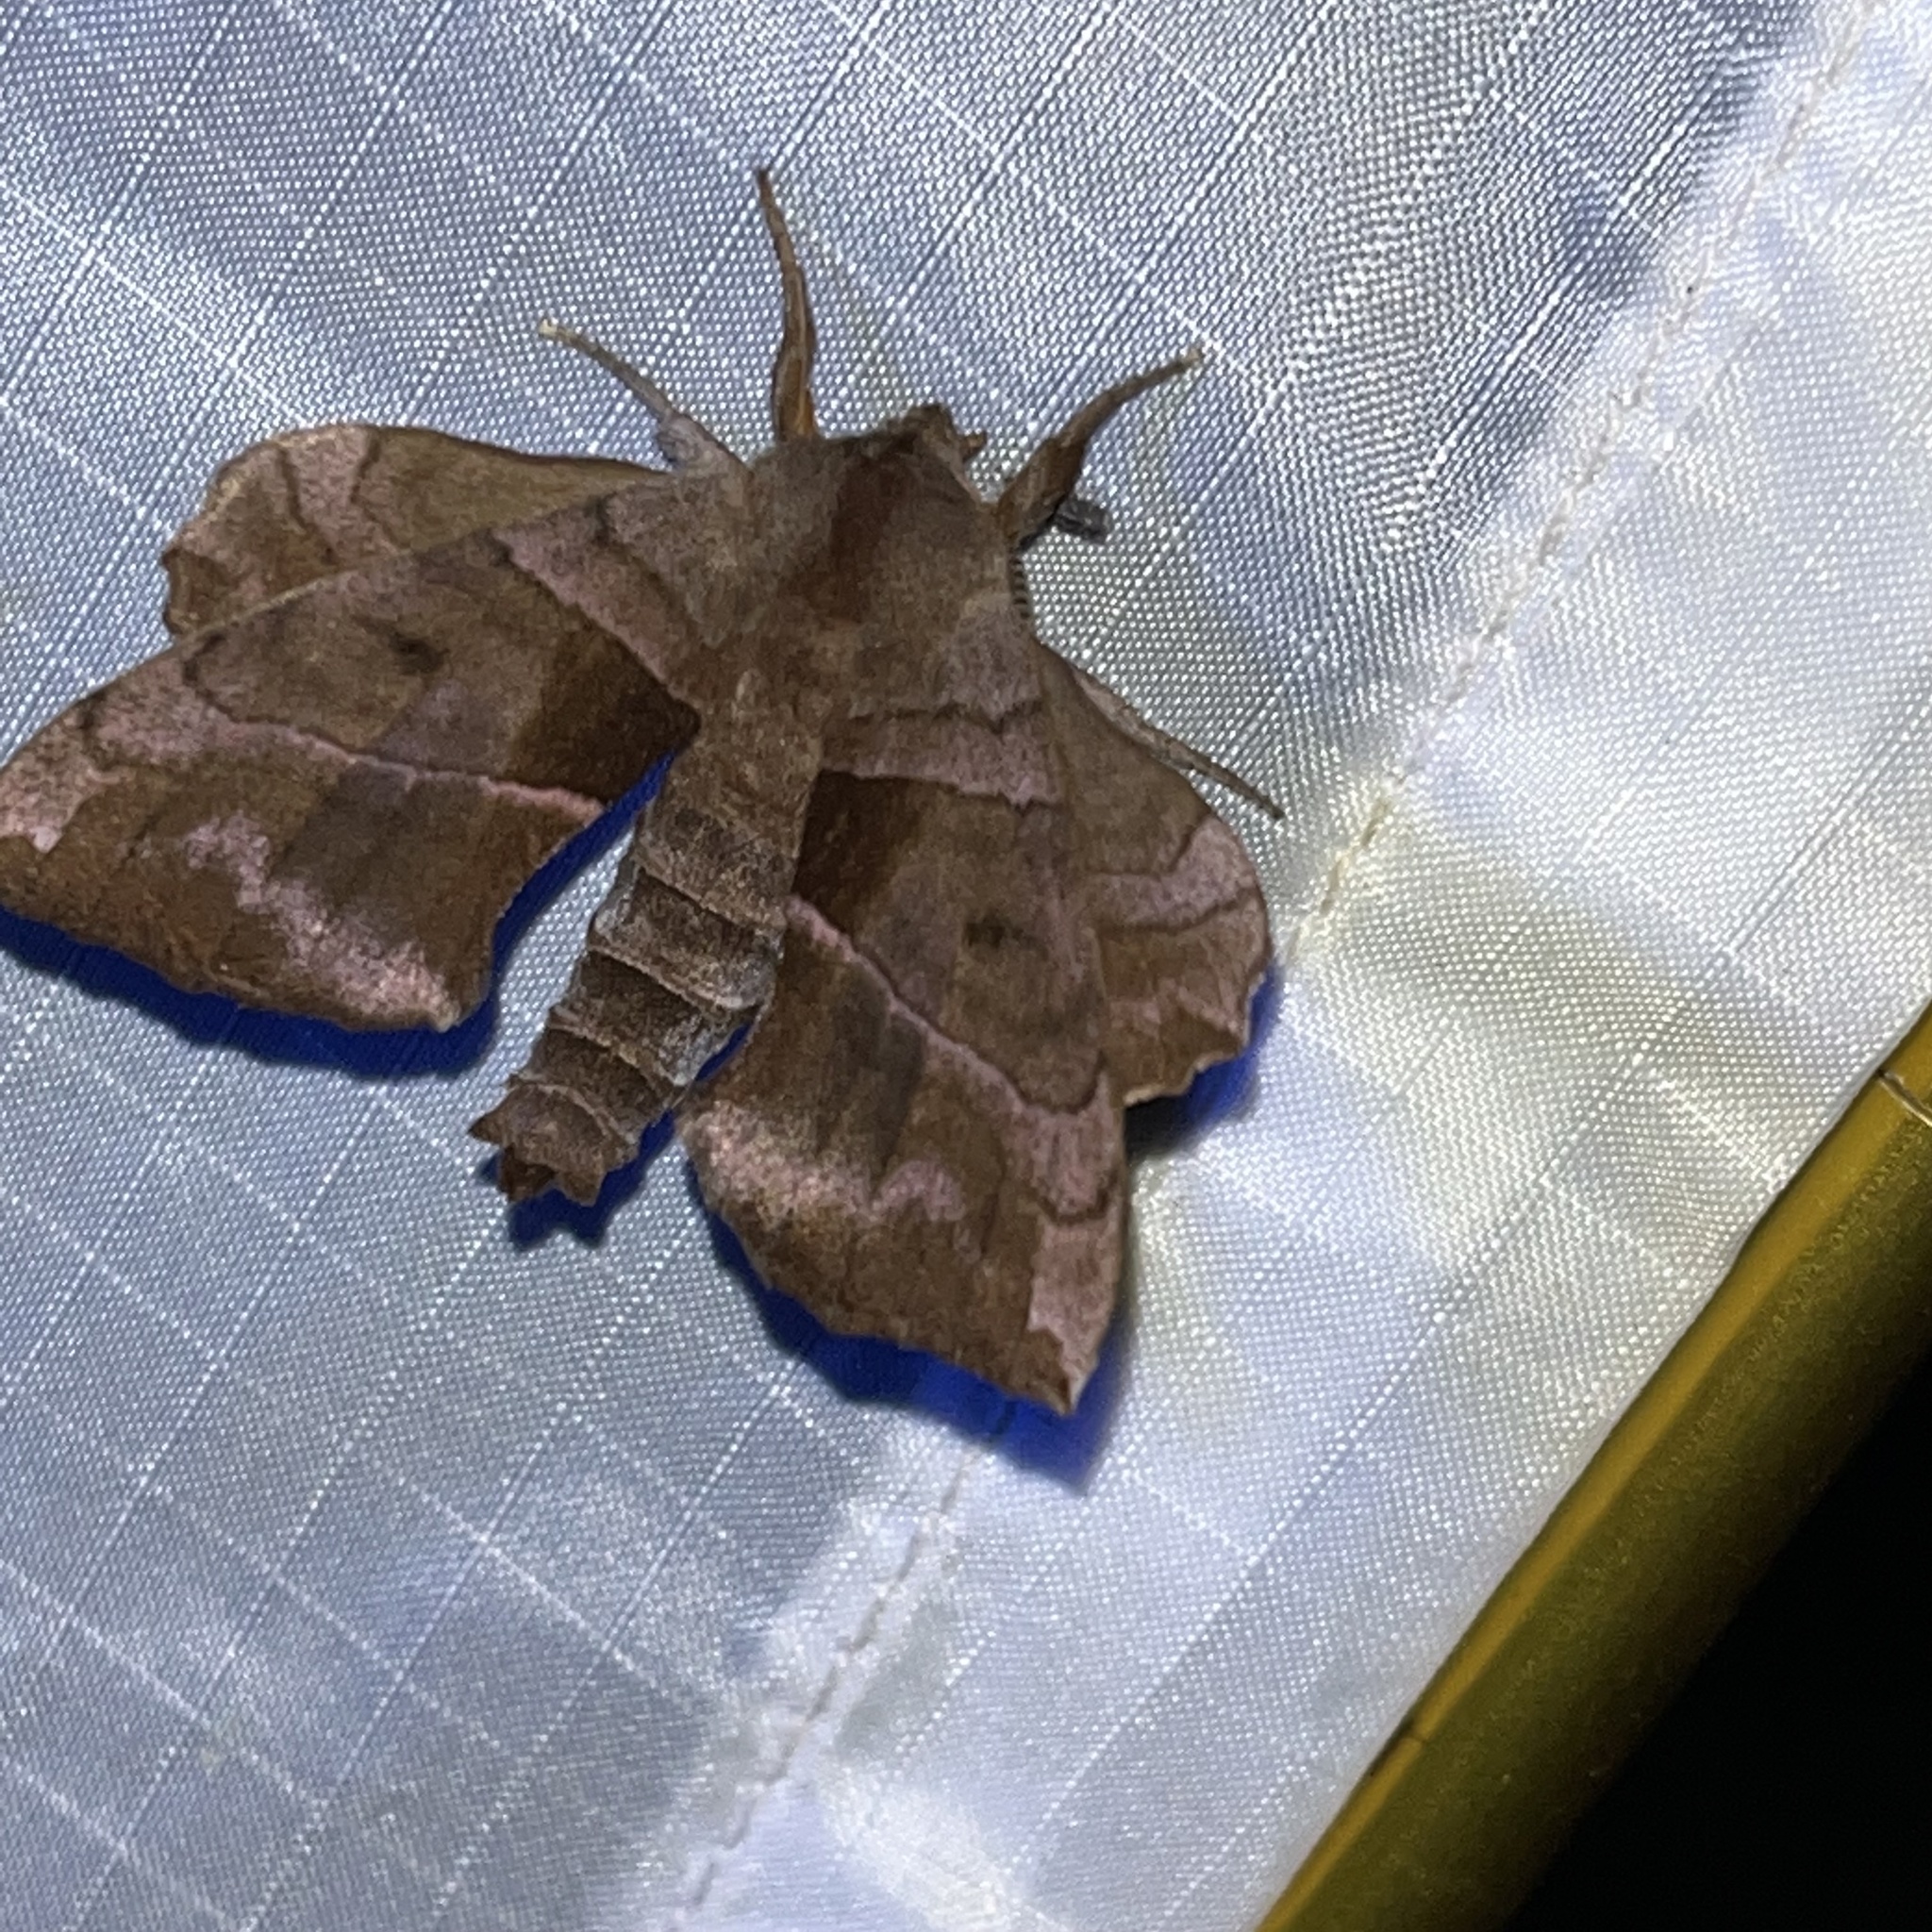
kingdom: Animalia
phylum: Arthropoda
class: Insecta
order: Lepidoptera
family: Sphingidae
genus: Amorpha
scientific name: Amorpha juglandis
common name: Walnut sphinx
